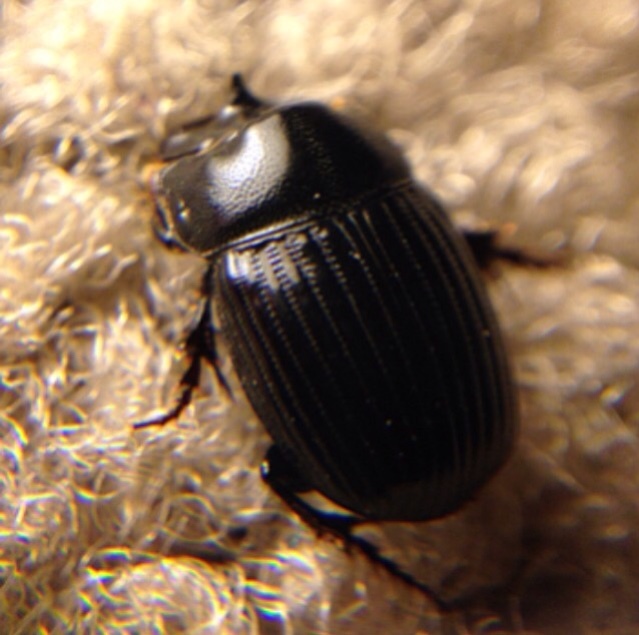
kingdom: Animalia
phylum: Arthropoda
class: Insecta
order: Coleoptera
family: Scarabaeidae
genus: Copris
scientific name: Copris minutus
